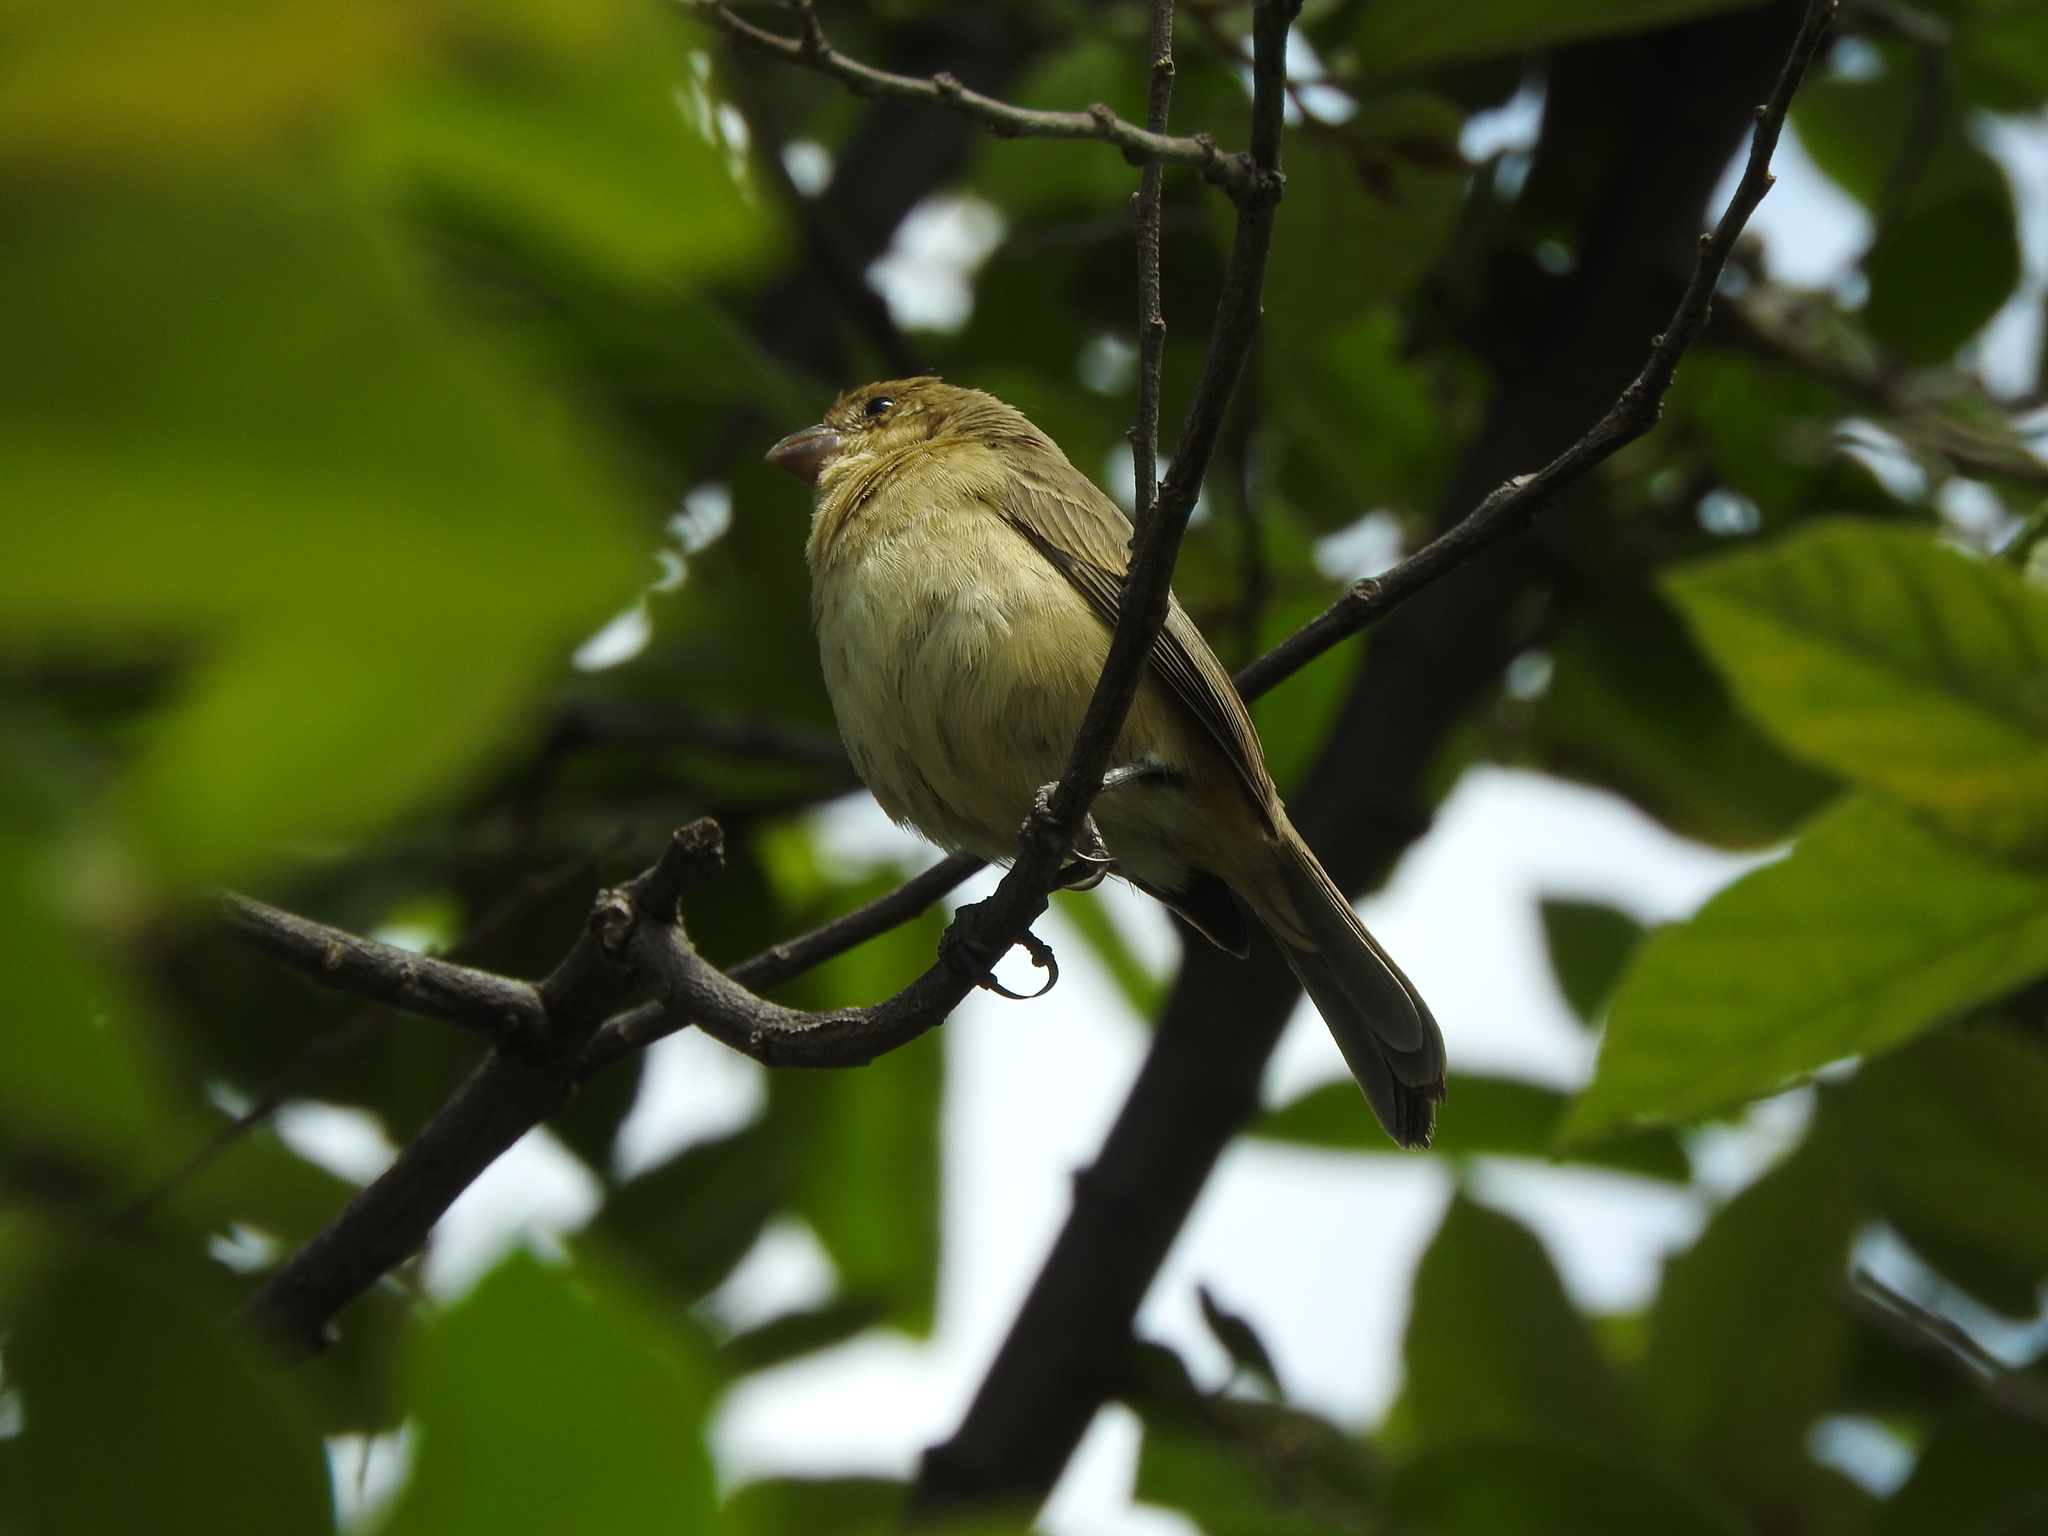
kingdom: Animalia
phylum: Chordata
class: Aves
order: Passeriformes
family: Thraupidae
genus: Sporophila
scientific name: Sporophila torqueola
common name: White-collared seedeater
